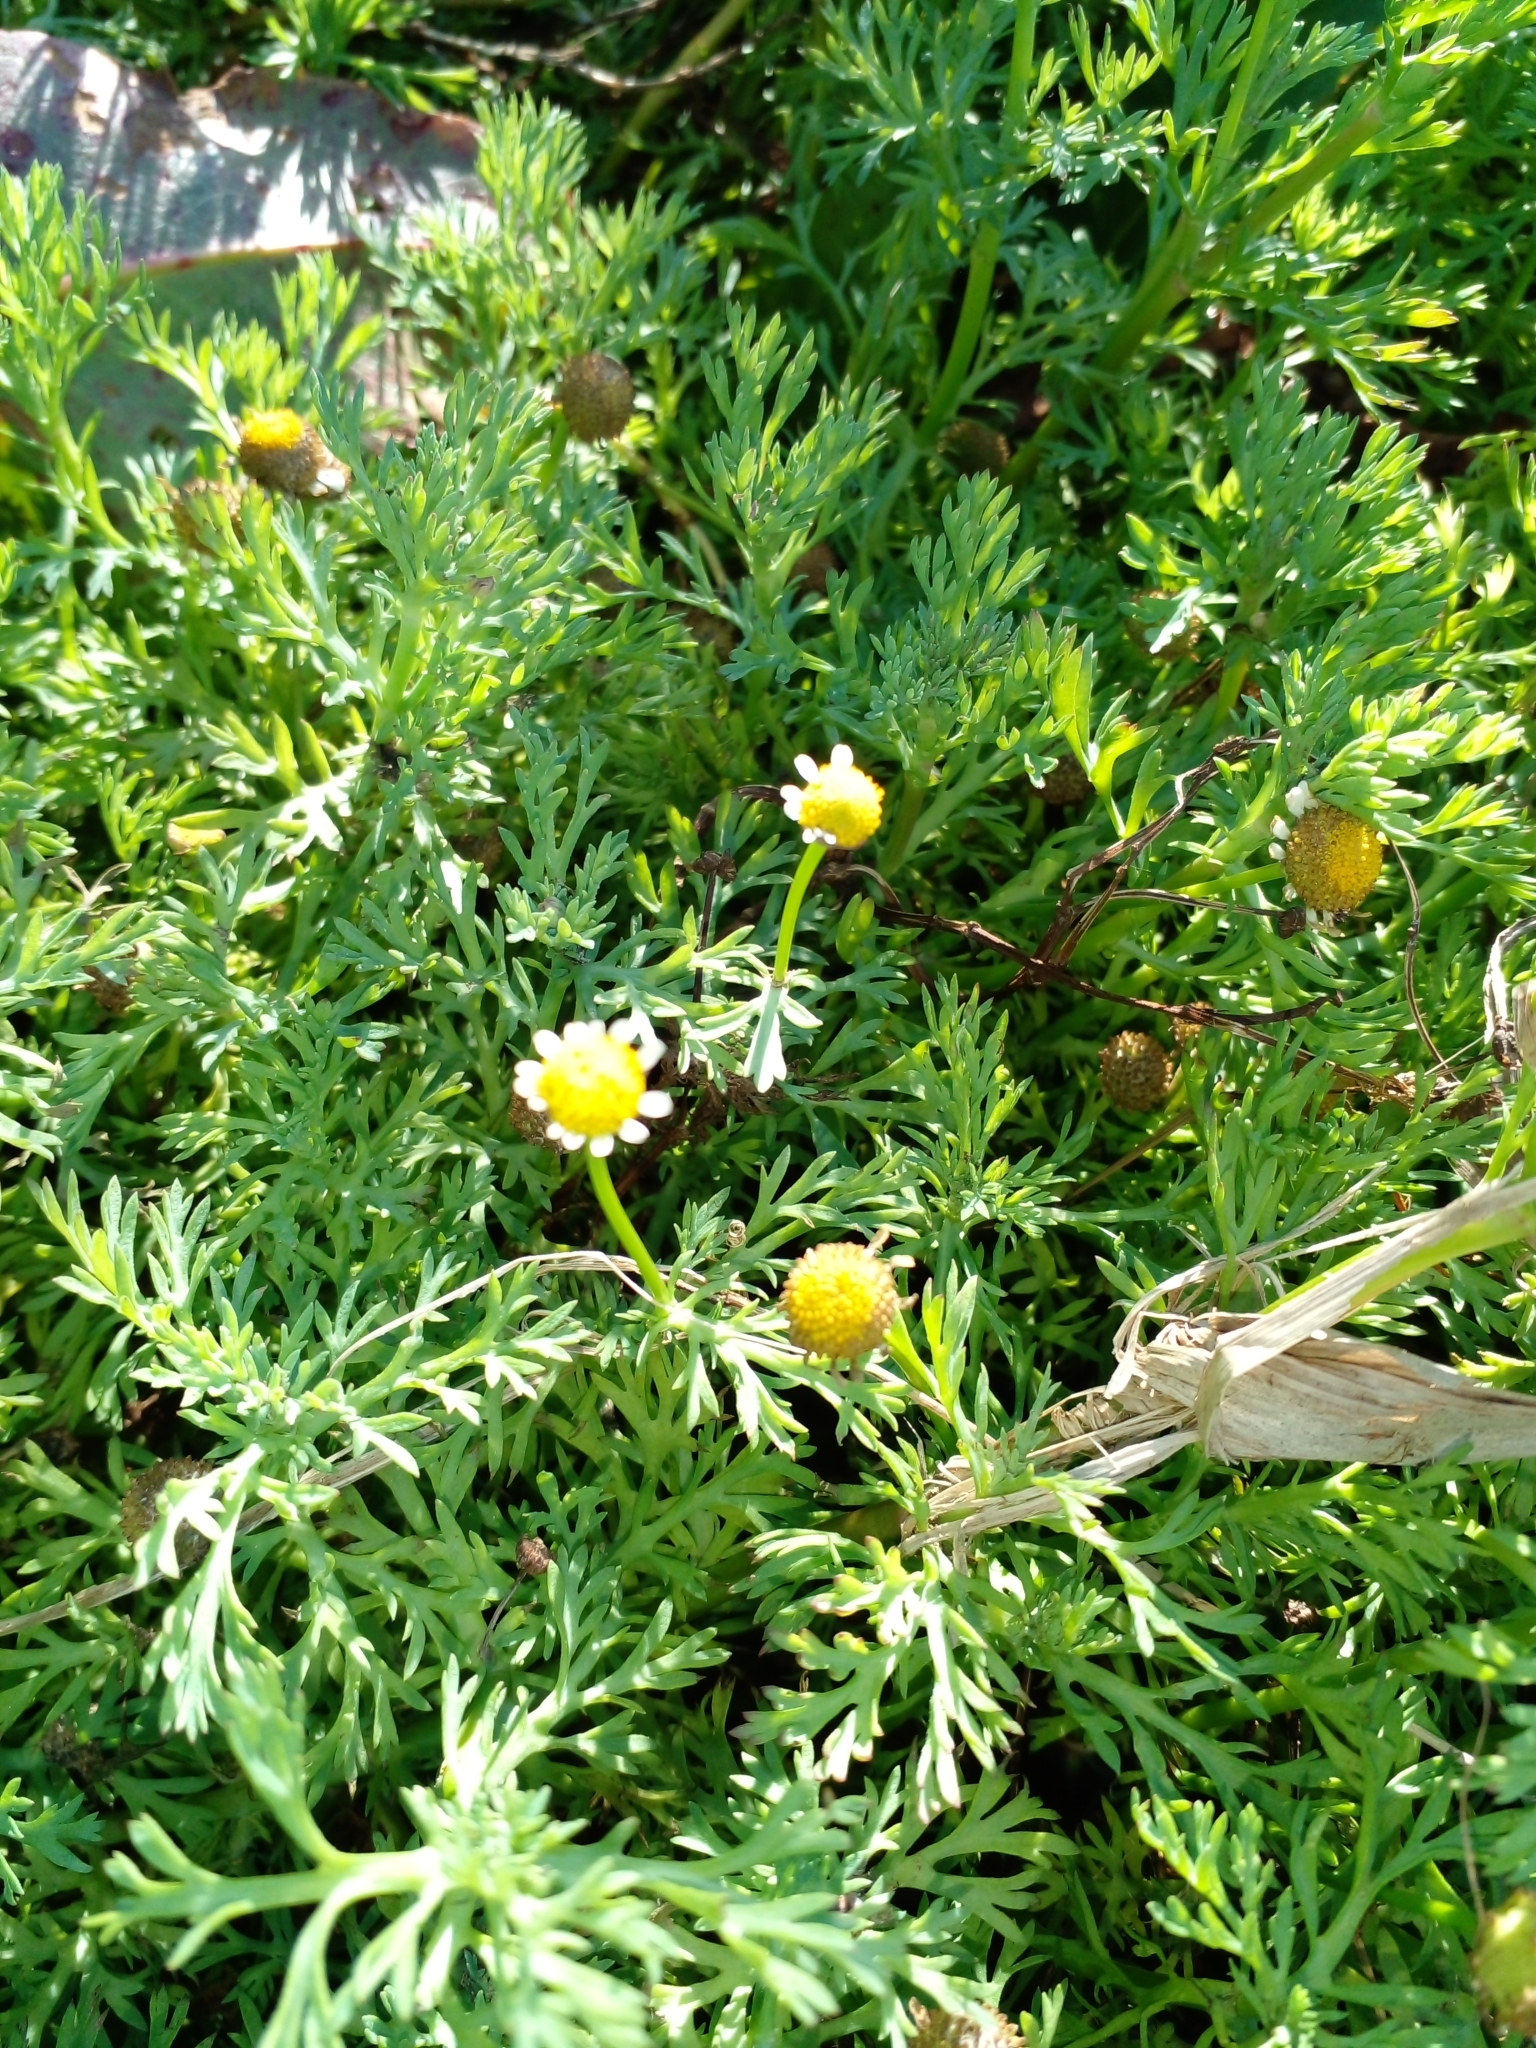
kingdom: Plantae
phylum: Tracheophyta
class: Magnoliopsida
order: Asterales
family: Asteraceae
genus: Cotula
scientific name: Cotula nigellifolia
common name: Staggerweed
